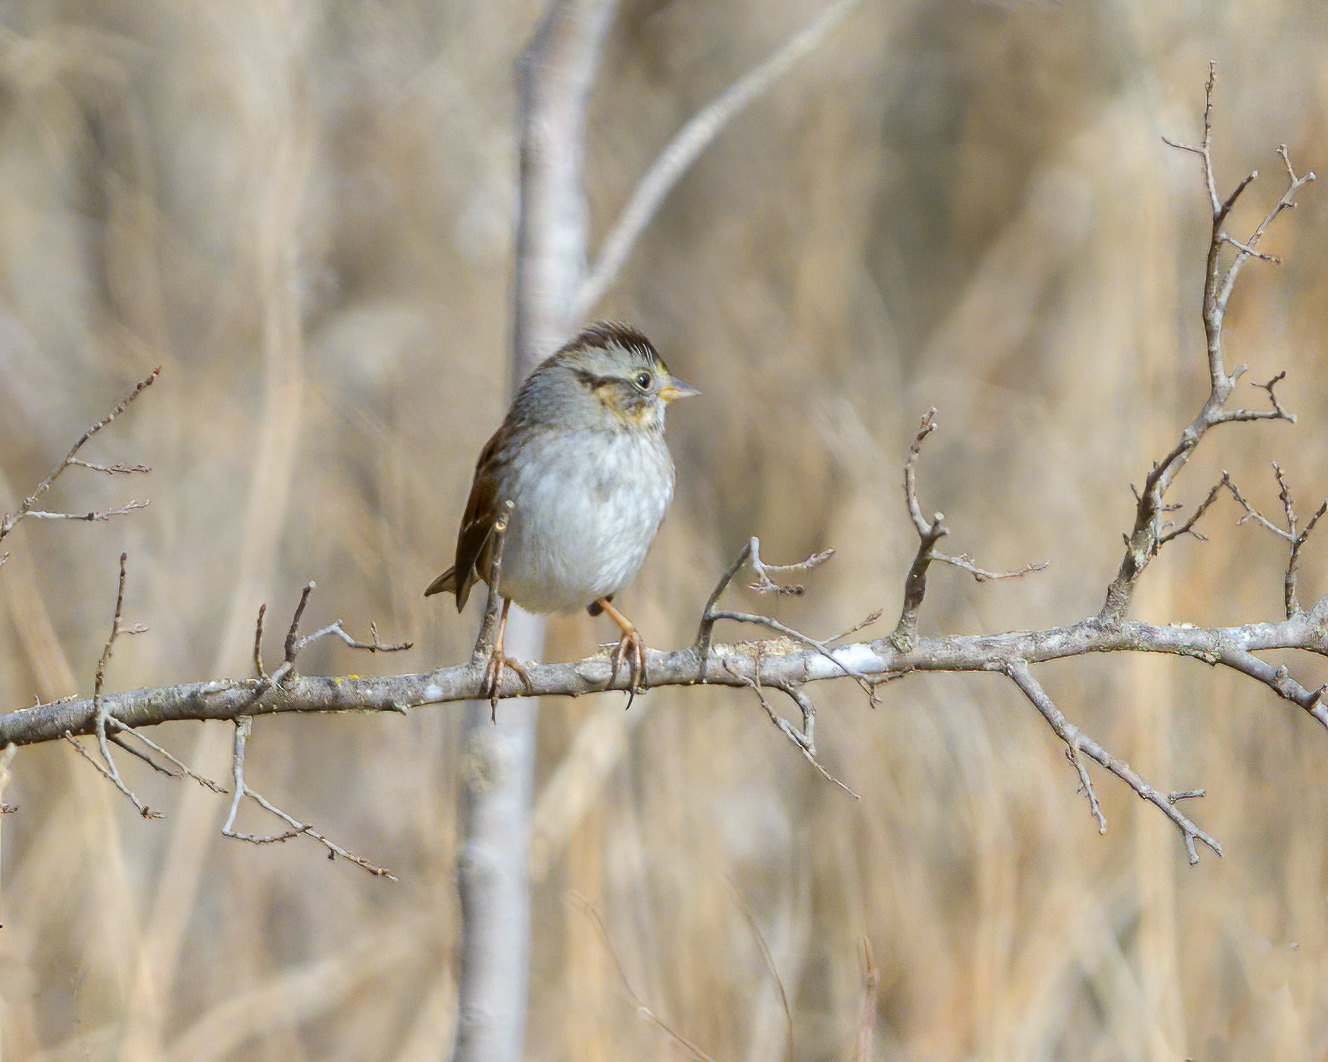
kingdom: Animalia
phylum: Chordata
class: Aves
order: Passeriformes
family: Passerellidae
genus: Melospiza
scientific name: Melospiza georgiana
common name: Swamp sparrow
